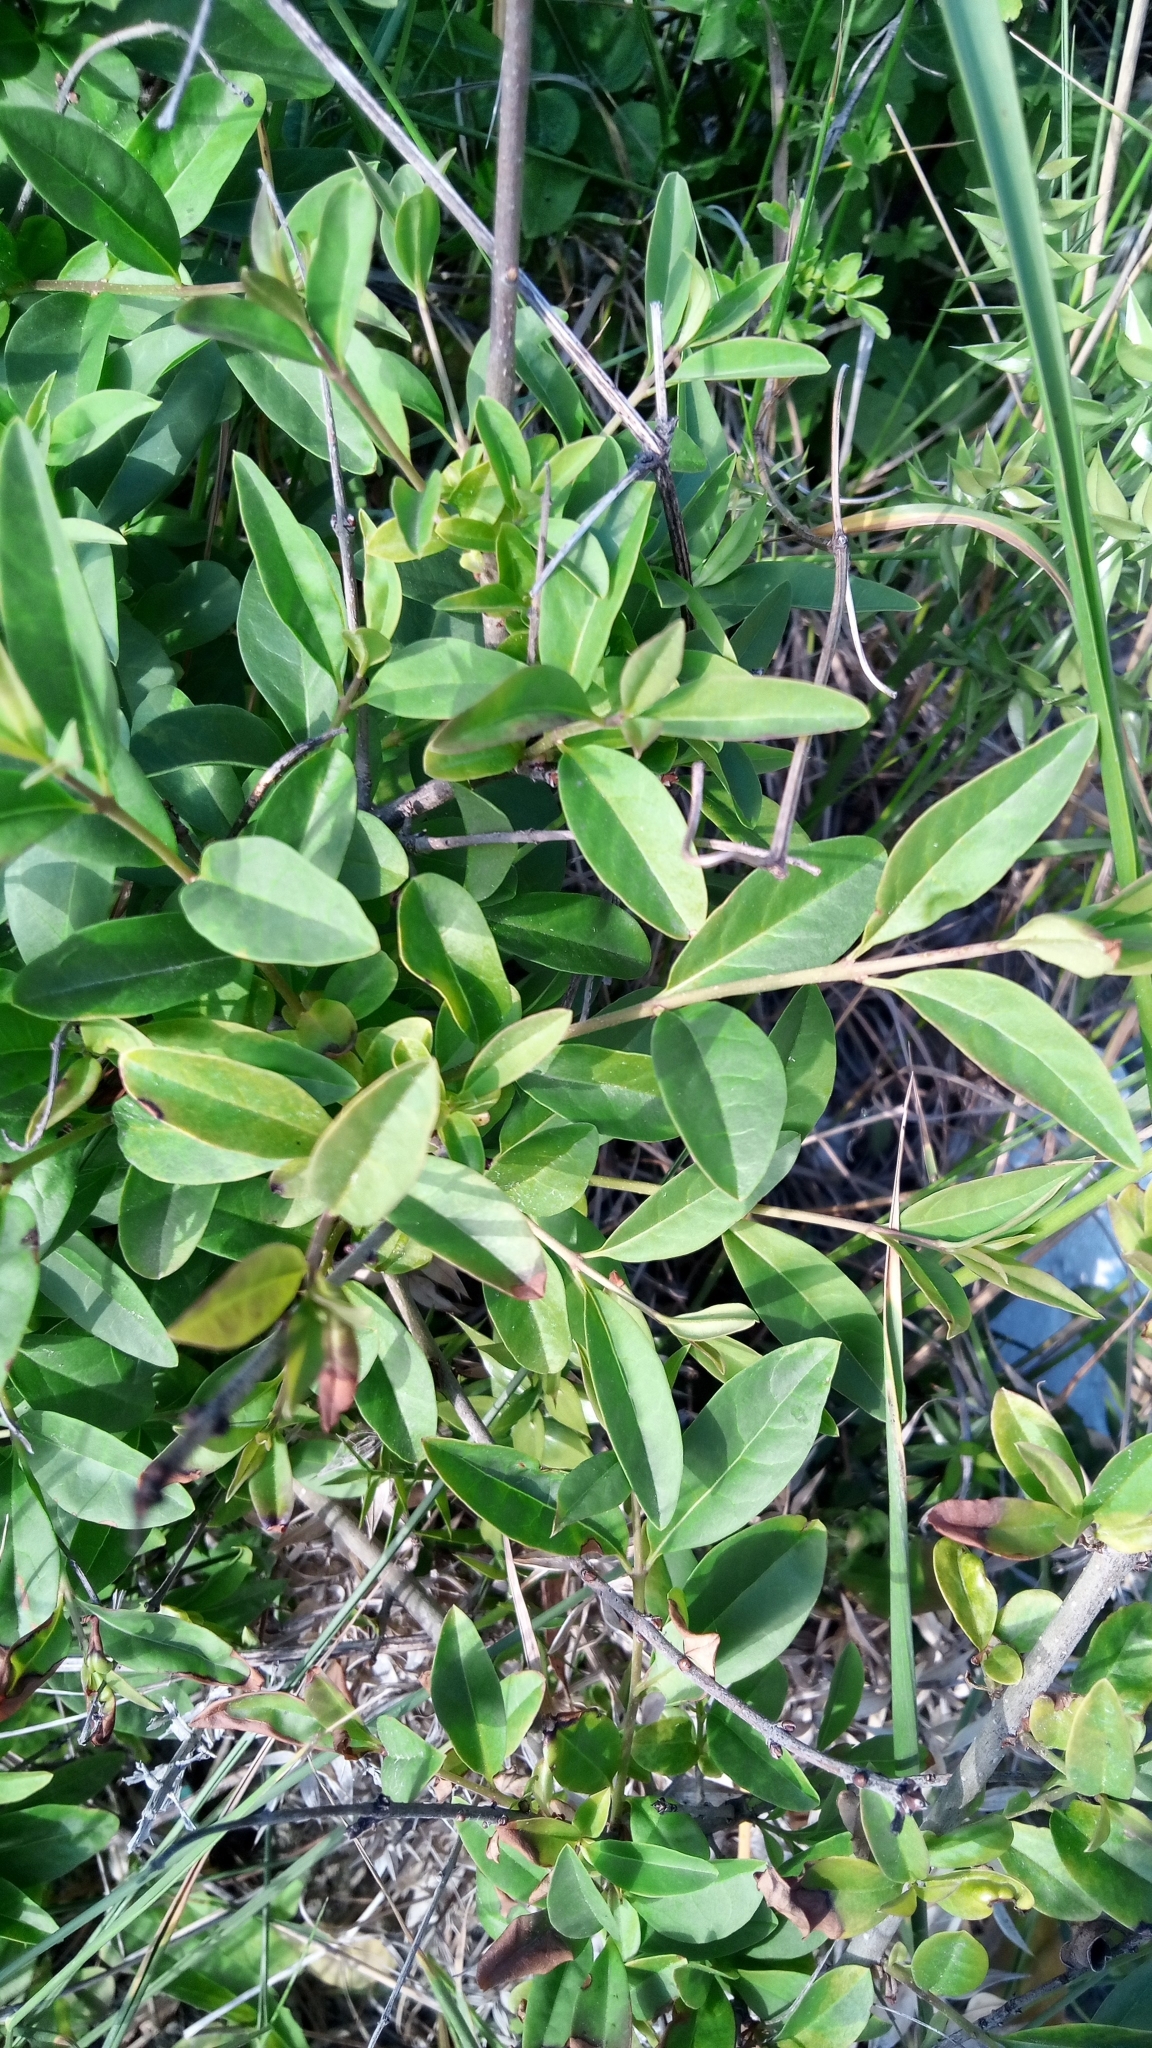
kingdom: Plantae
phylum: Tracheophyta
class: Magnoliopsida
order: Lamiales
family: Oleaceae
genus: Ligustrum
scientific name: Ligustrum vulgare
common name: Wild privet
